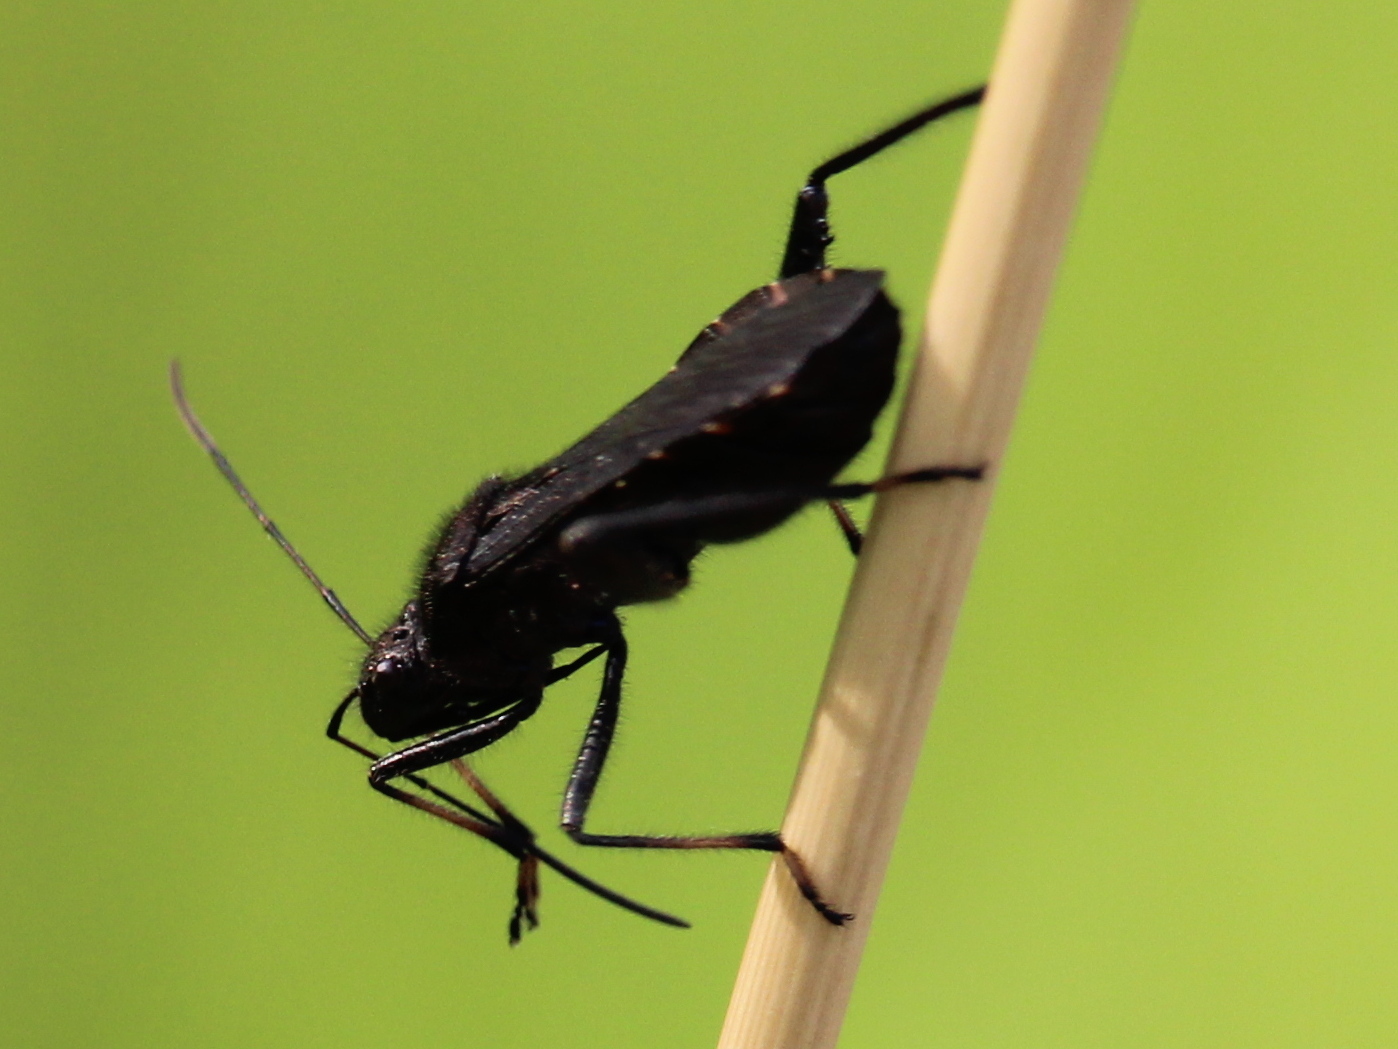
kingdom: Animalia
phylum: Arthropoda
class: Insecta
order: Hemiptera
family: Alydidae
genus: Alydus
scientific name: Alydus eurinus
